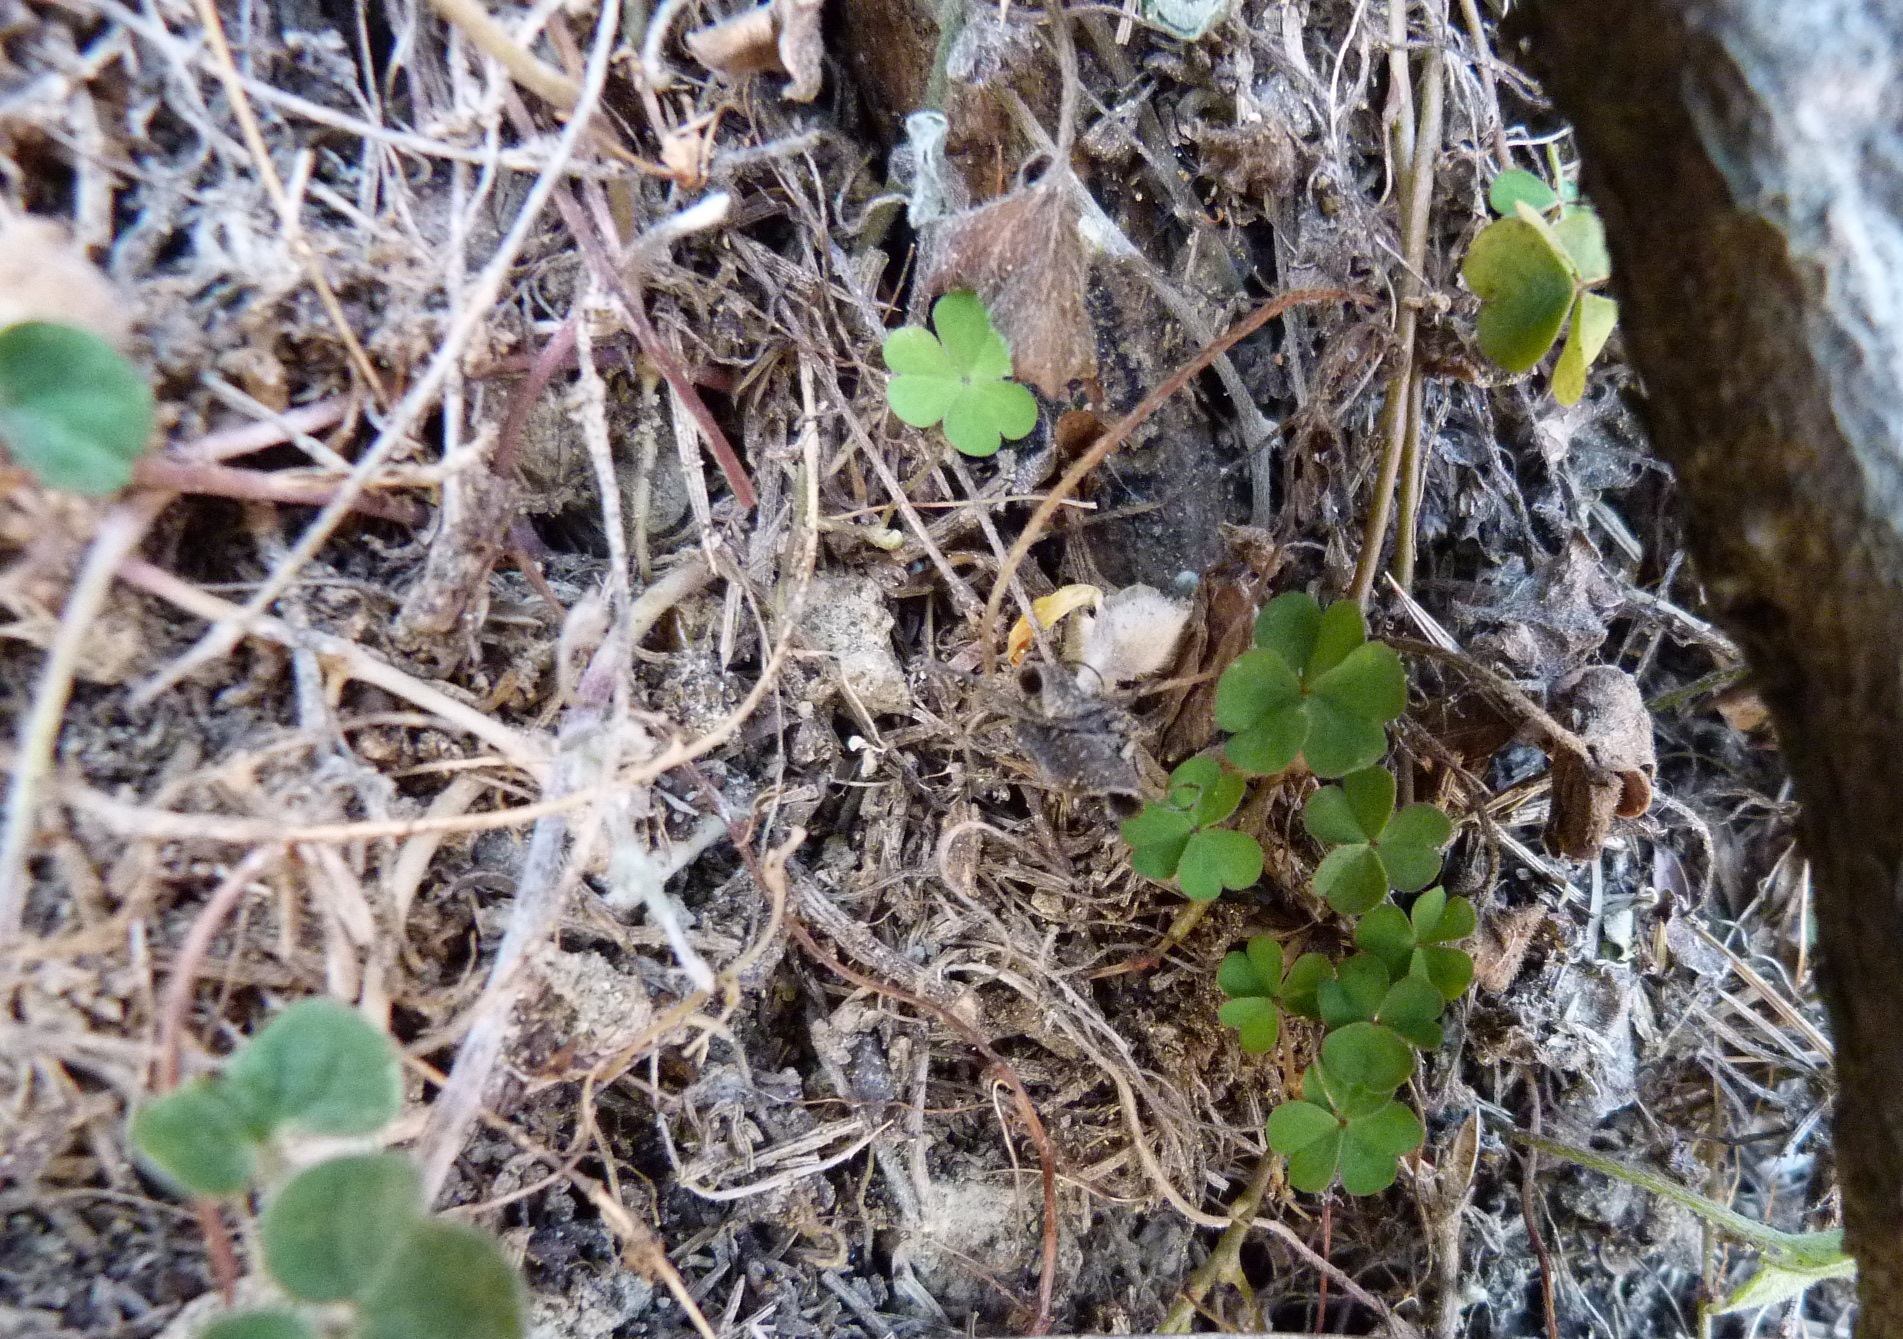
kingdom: Plantae
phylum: Tracheophyta
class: Magnoliopsida
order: Oxalidales
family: Oxalidaceae
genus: Oxalis
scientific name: Oxalis exilis
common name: Least yellow-sorrel
